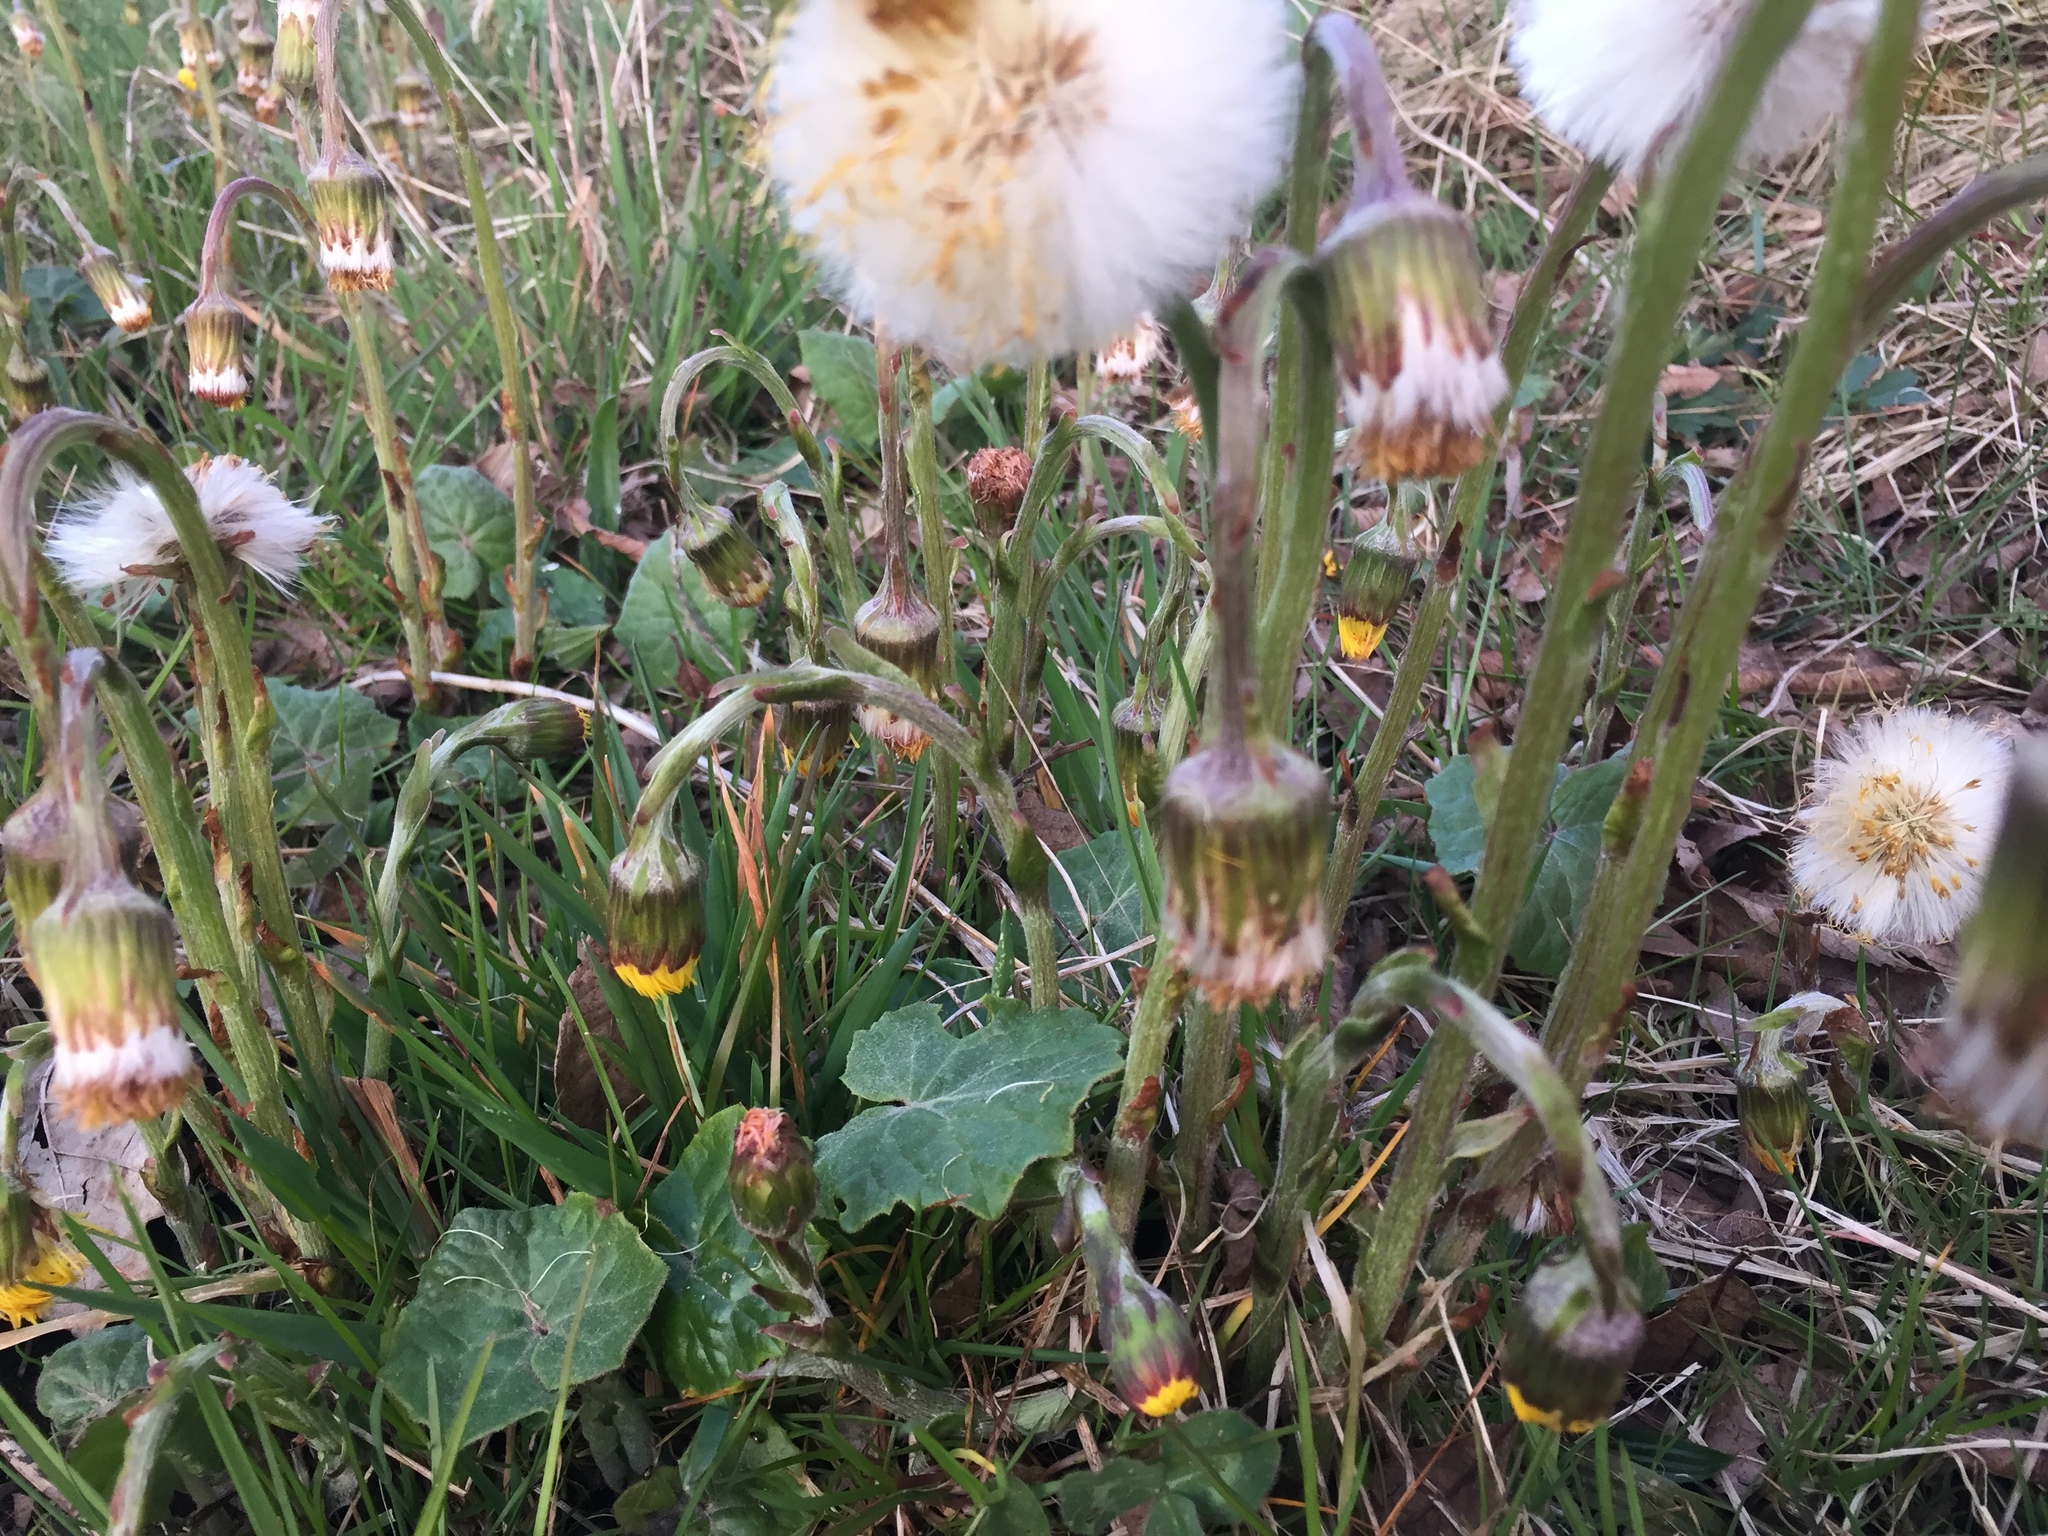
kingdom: Plantae
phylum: Tracheophyta
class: Magnoliopsida
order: Asterales
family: Asteraceae
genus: Tussilago
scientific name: Tussilago farfara
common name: Coltsfoot
